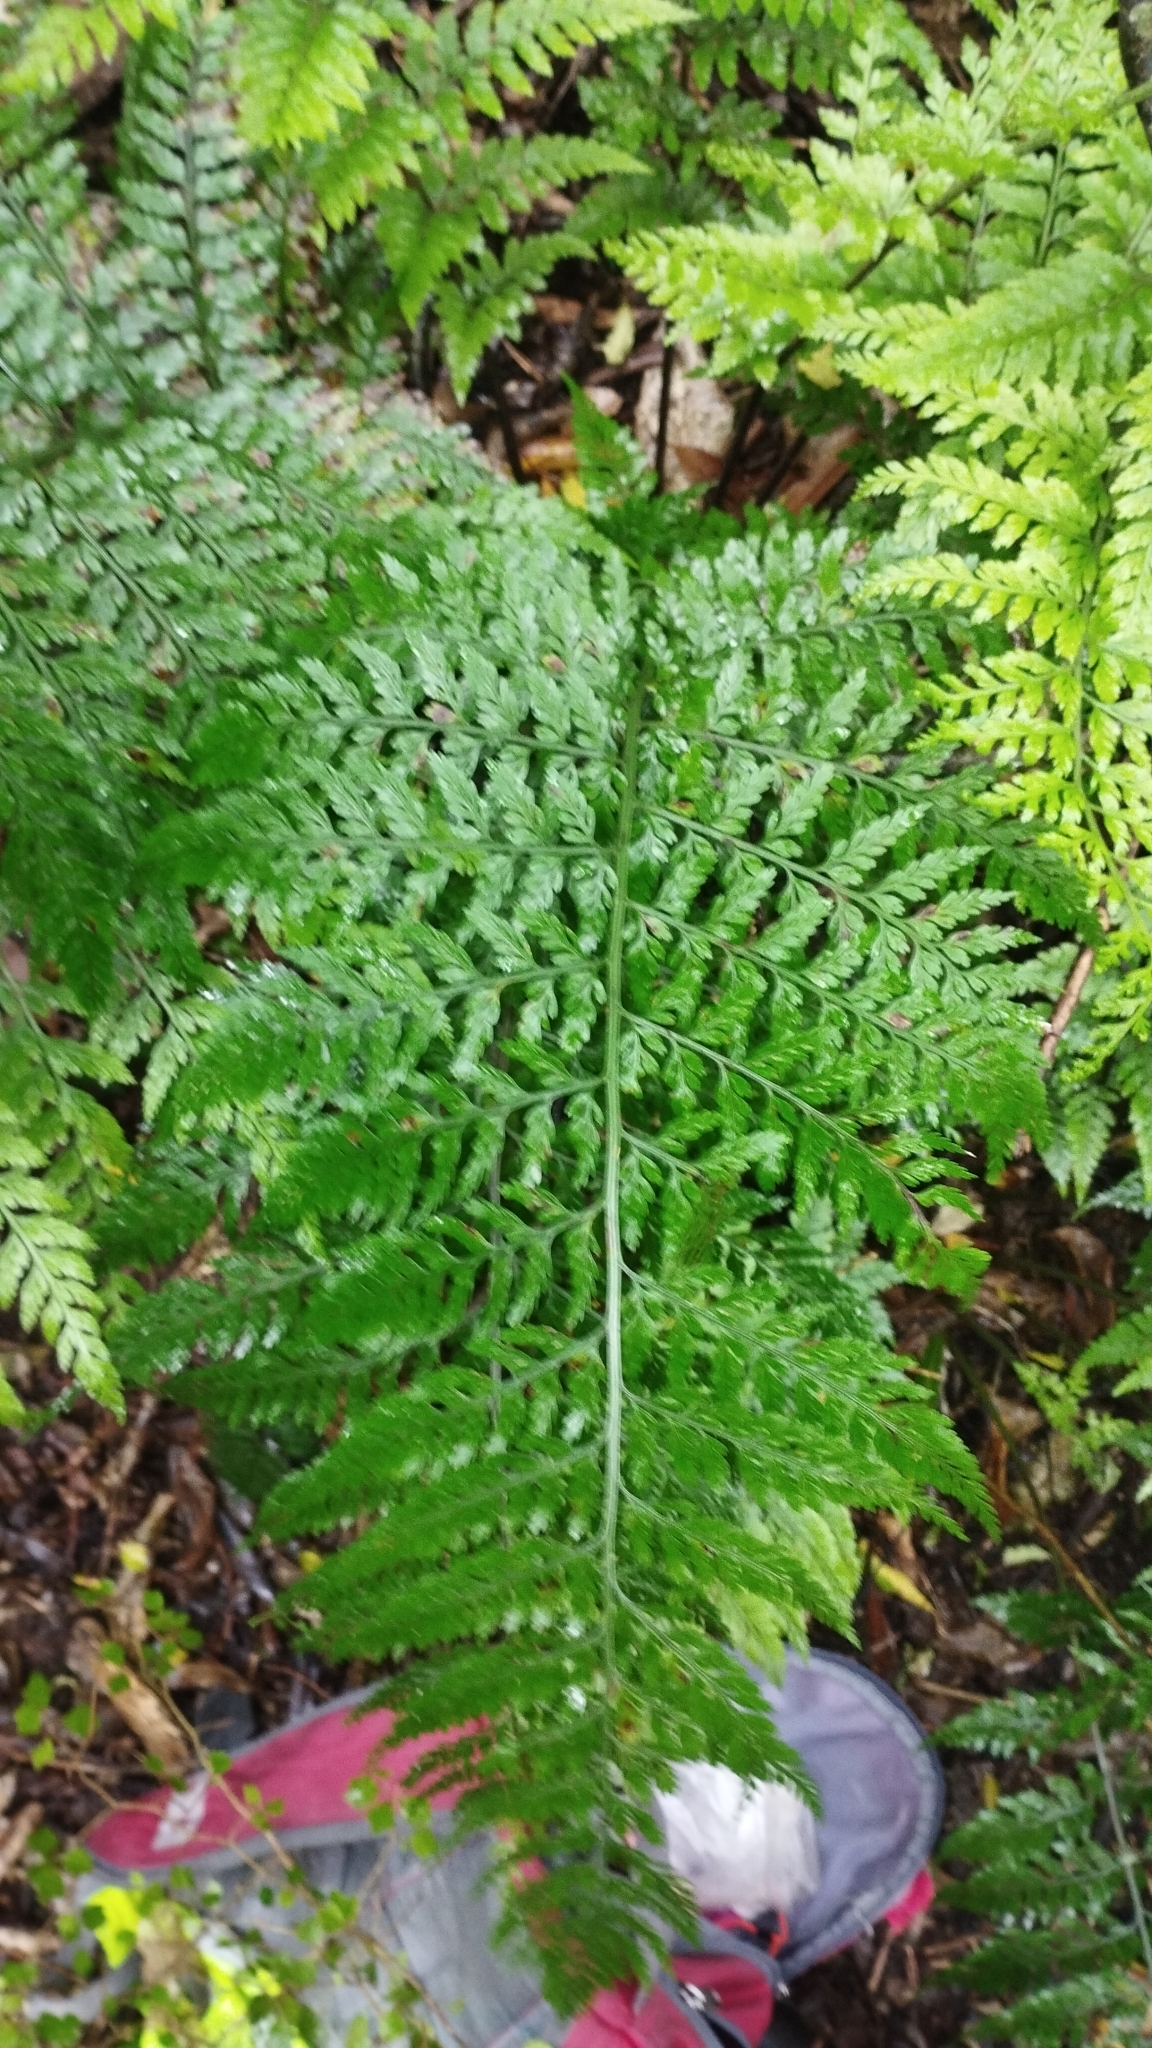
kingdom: Plantae
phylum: Tracheophyta
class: Polypodiopsida
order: Polypodiales
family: Aspleniaceae
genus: Asplenium
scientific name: Asplenium
